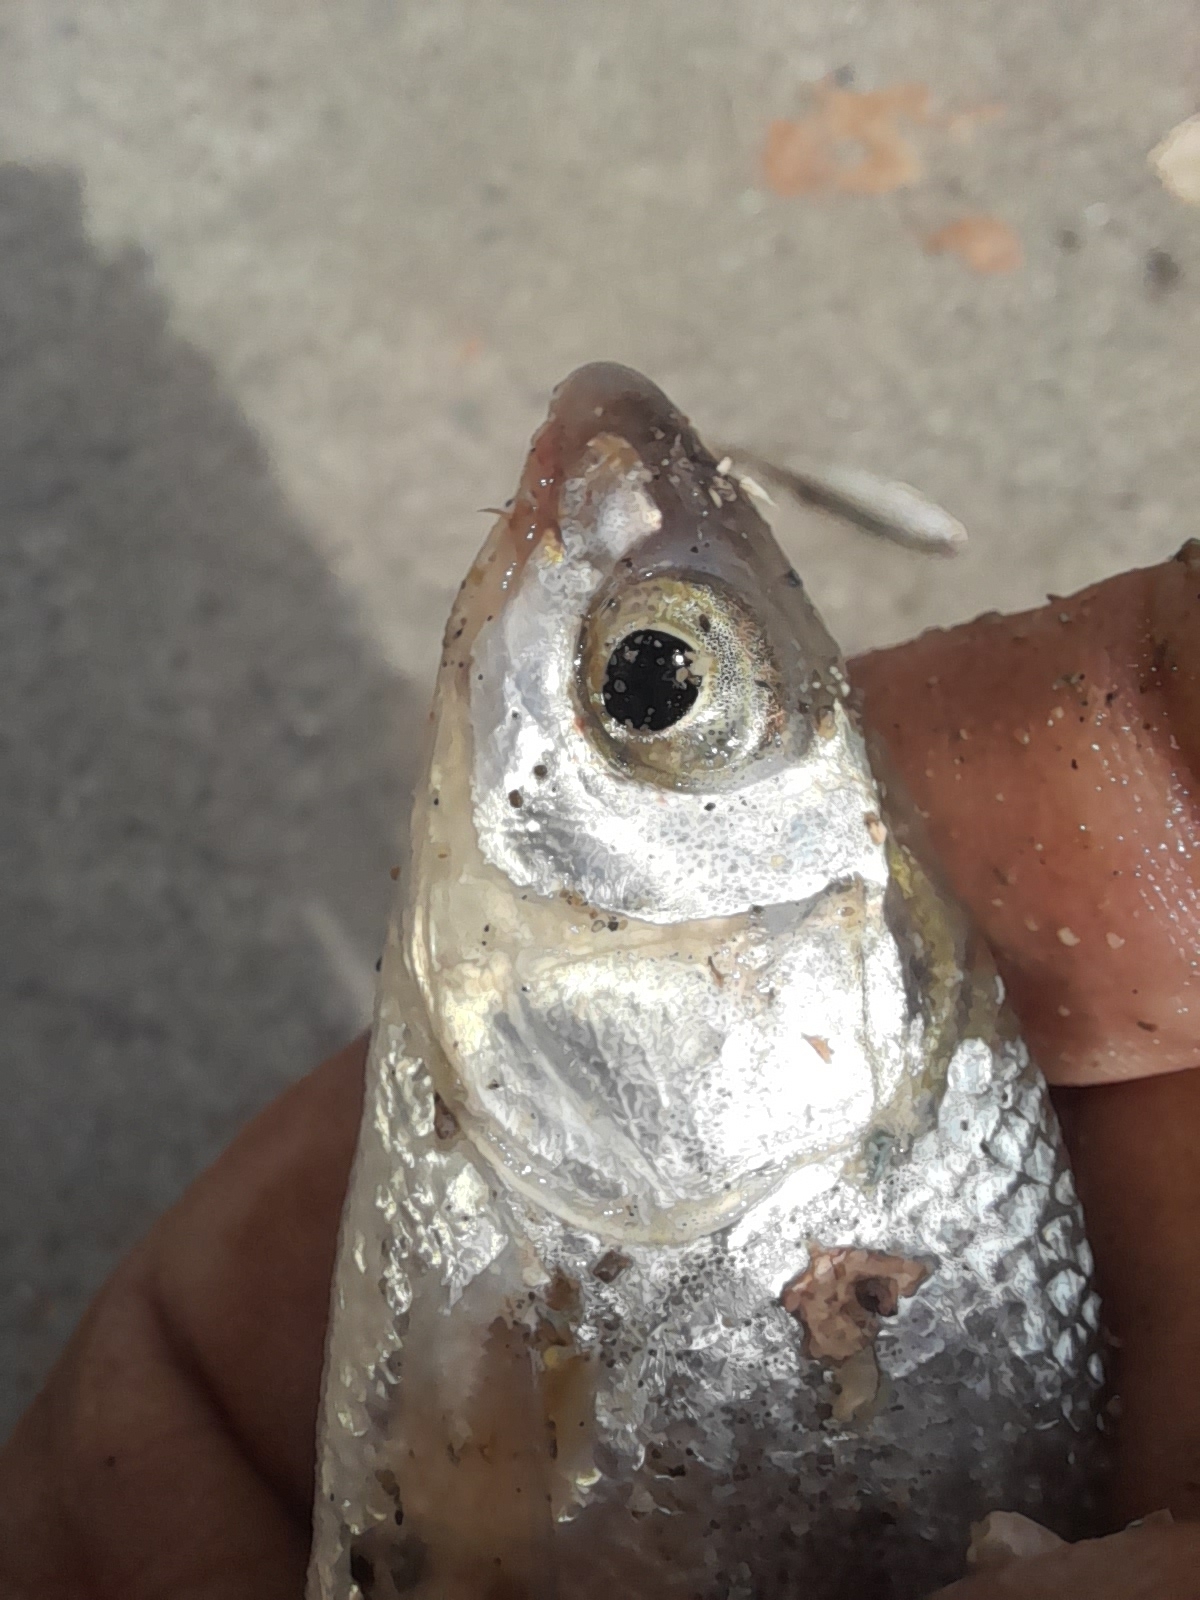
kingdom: Animalia
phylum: Chordata
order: Cypriniformes
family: Cyprinidae
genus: Chondrostoma
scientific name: Chondrostoma soetta
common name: Italian nase
